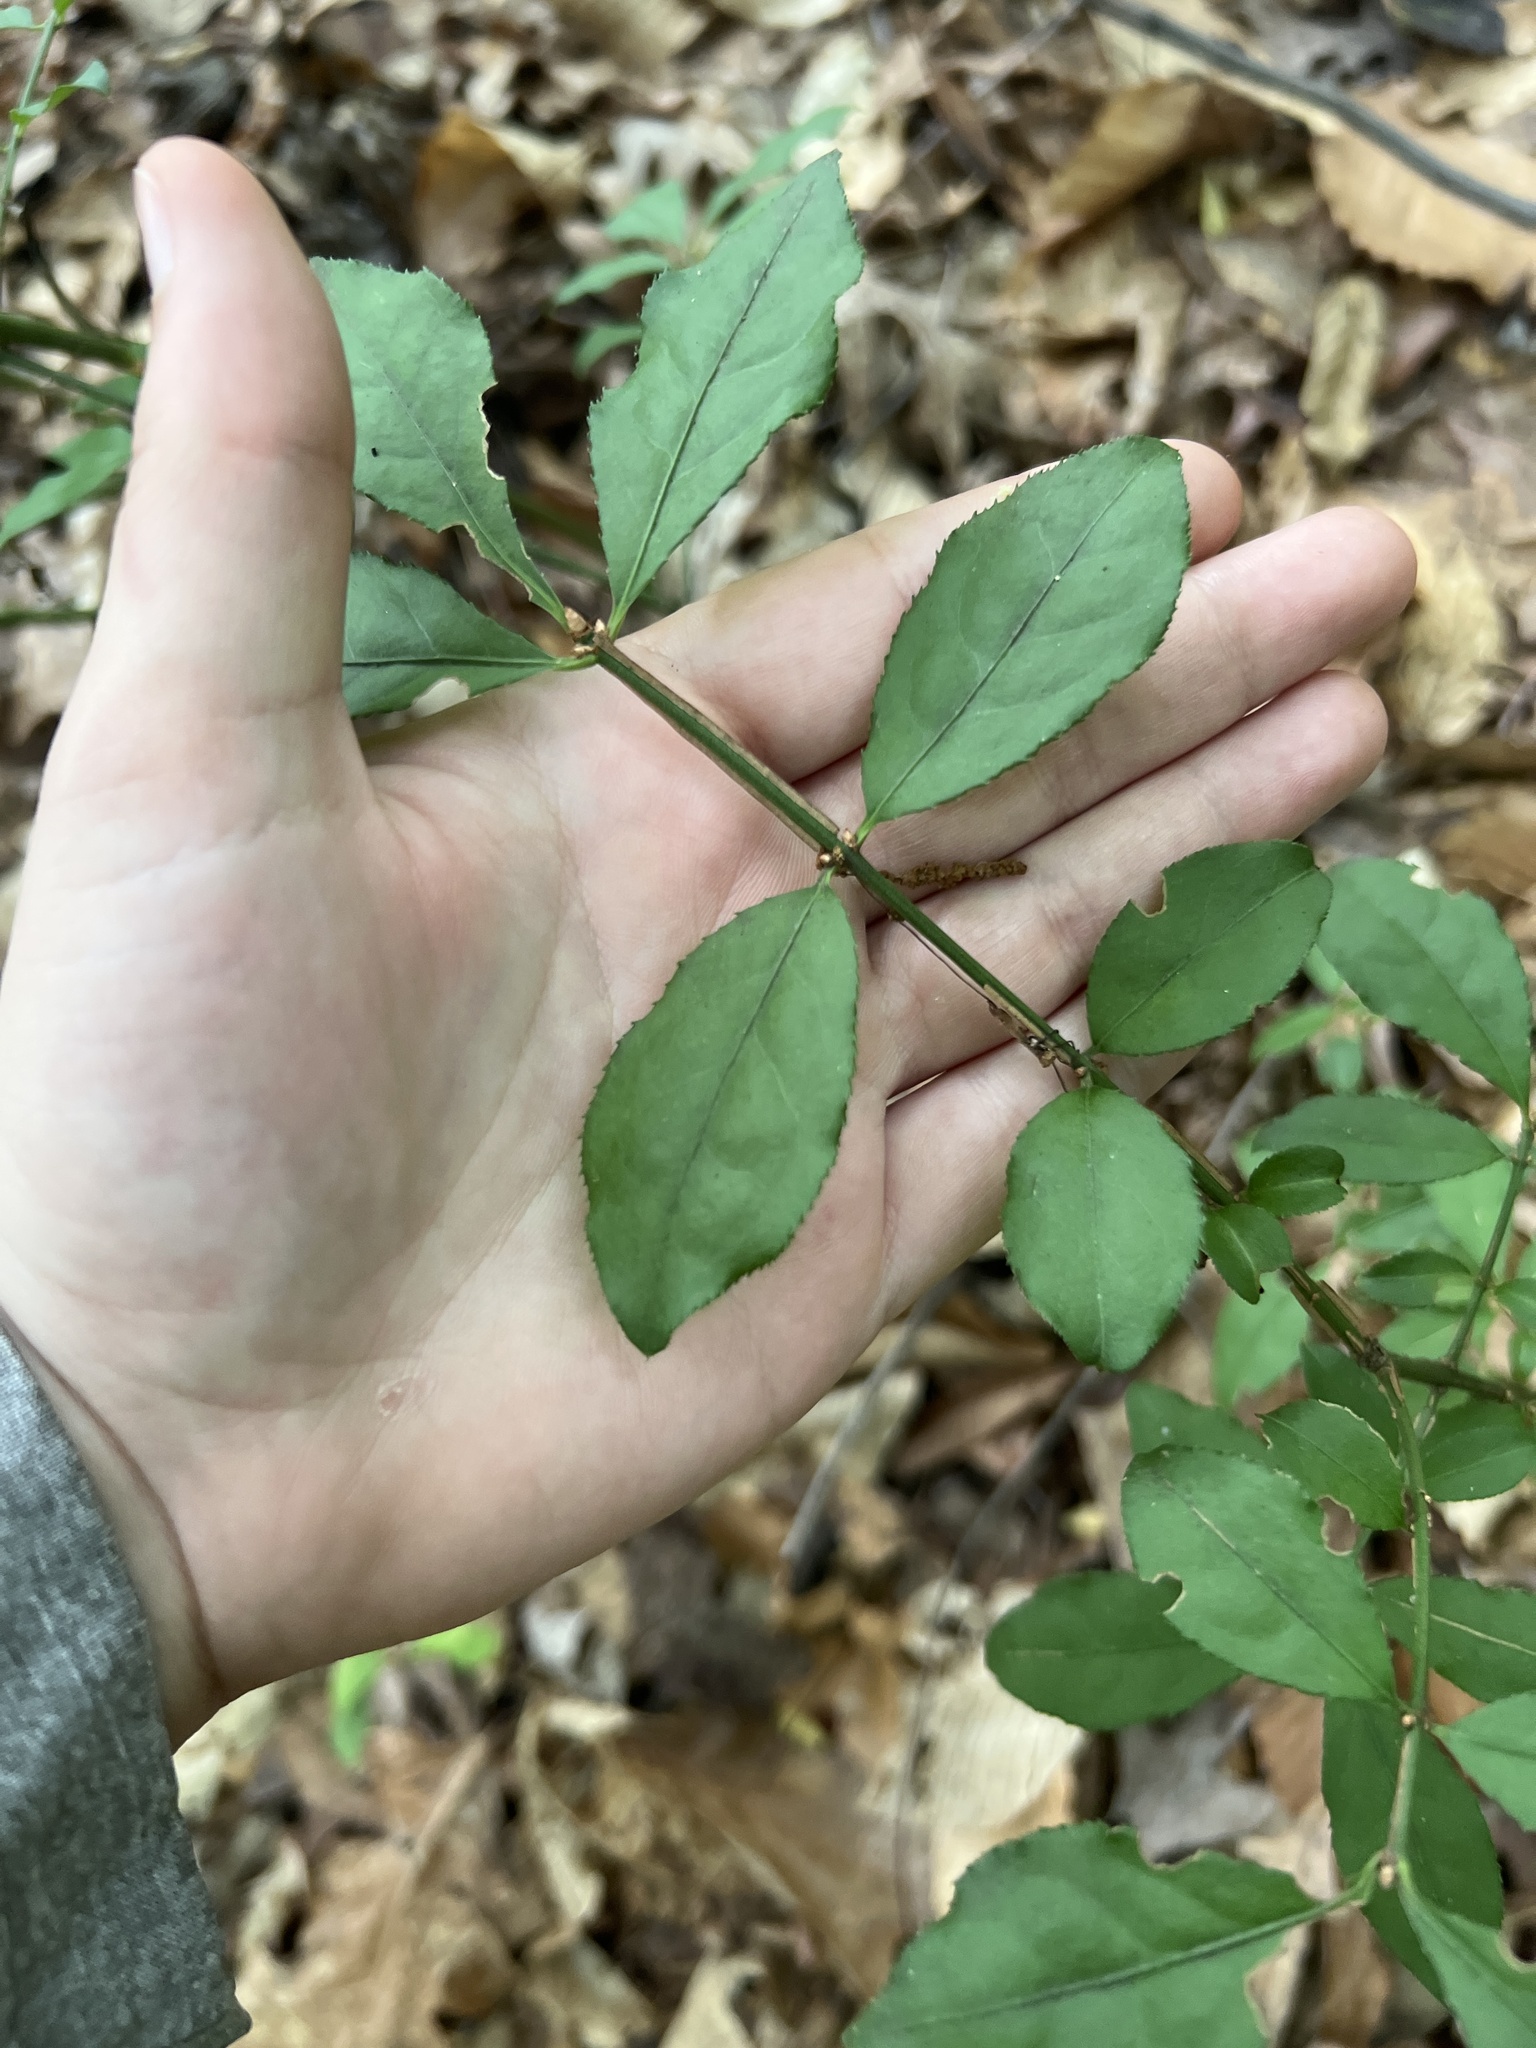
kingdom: Plantae
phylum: Tracheophyta
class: Magnoliopsida
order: Celastrales
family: Celastraceae
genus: Euonymus
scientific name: Euonymus alatus
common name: Winged euonymus
